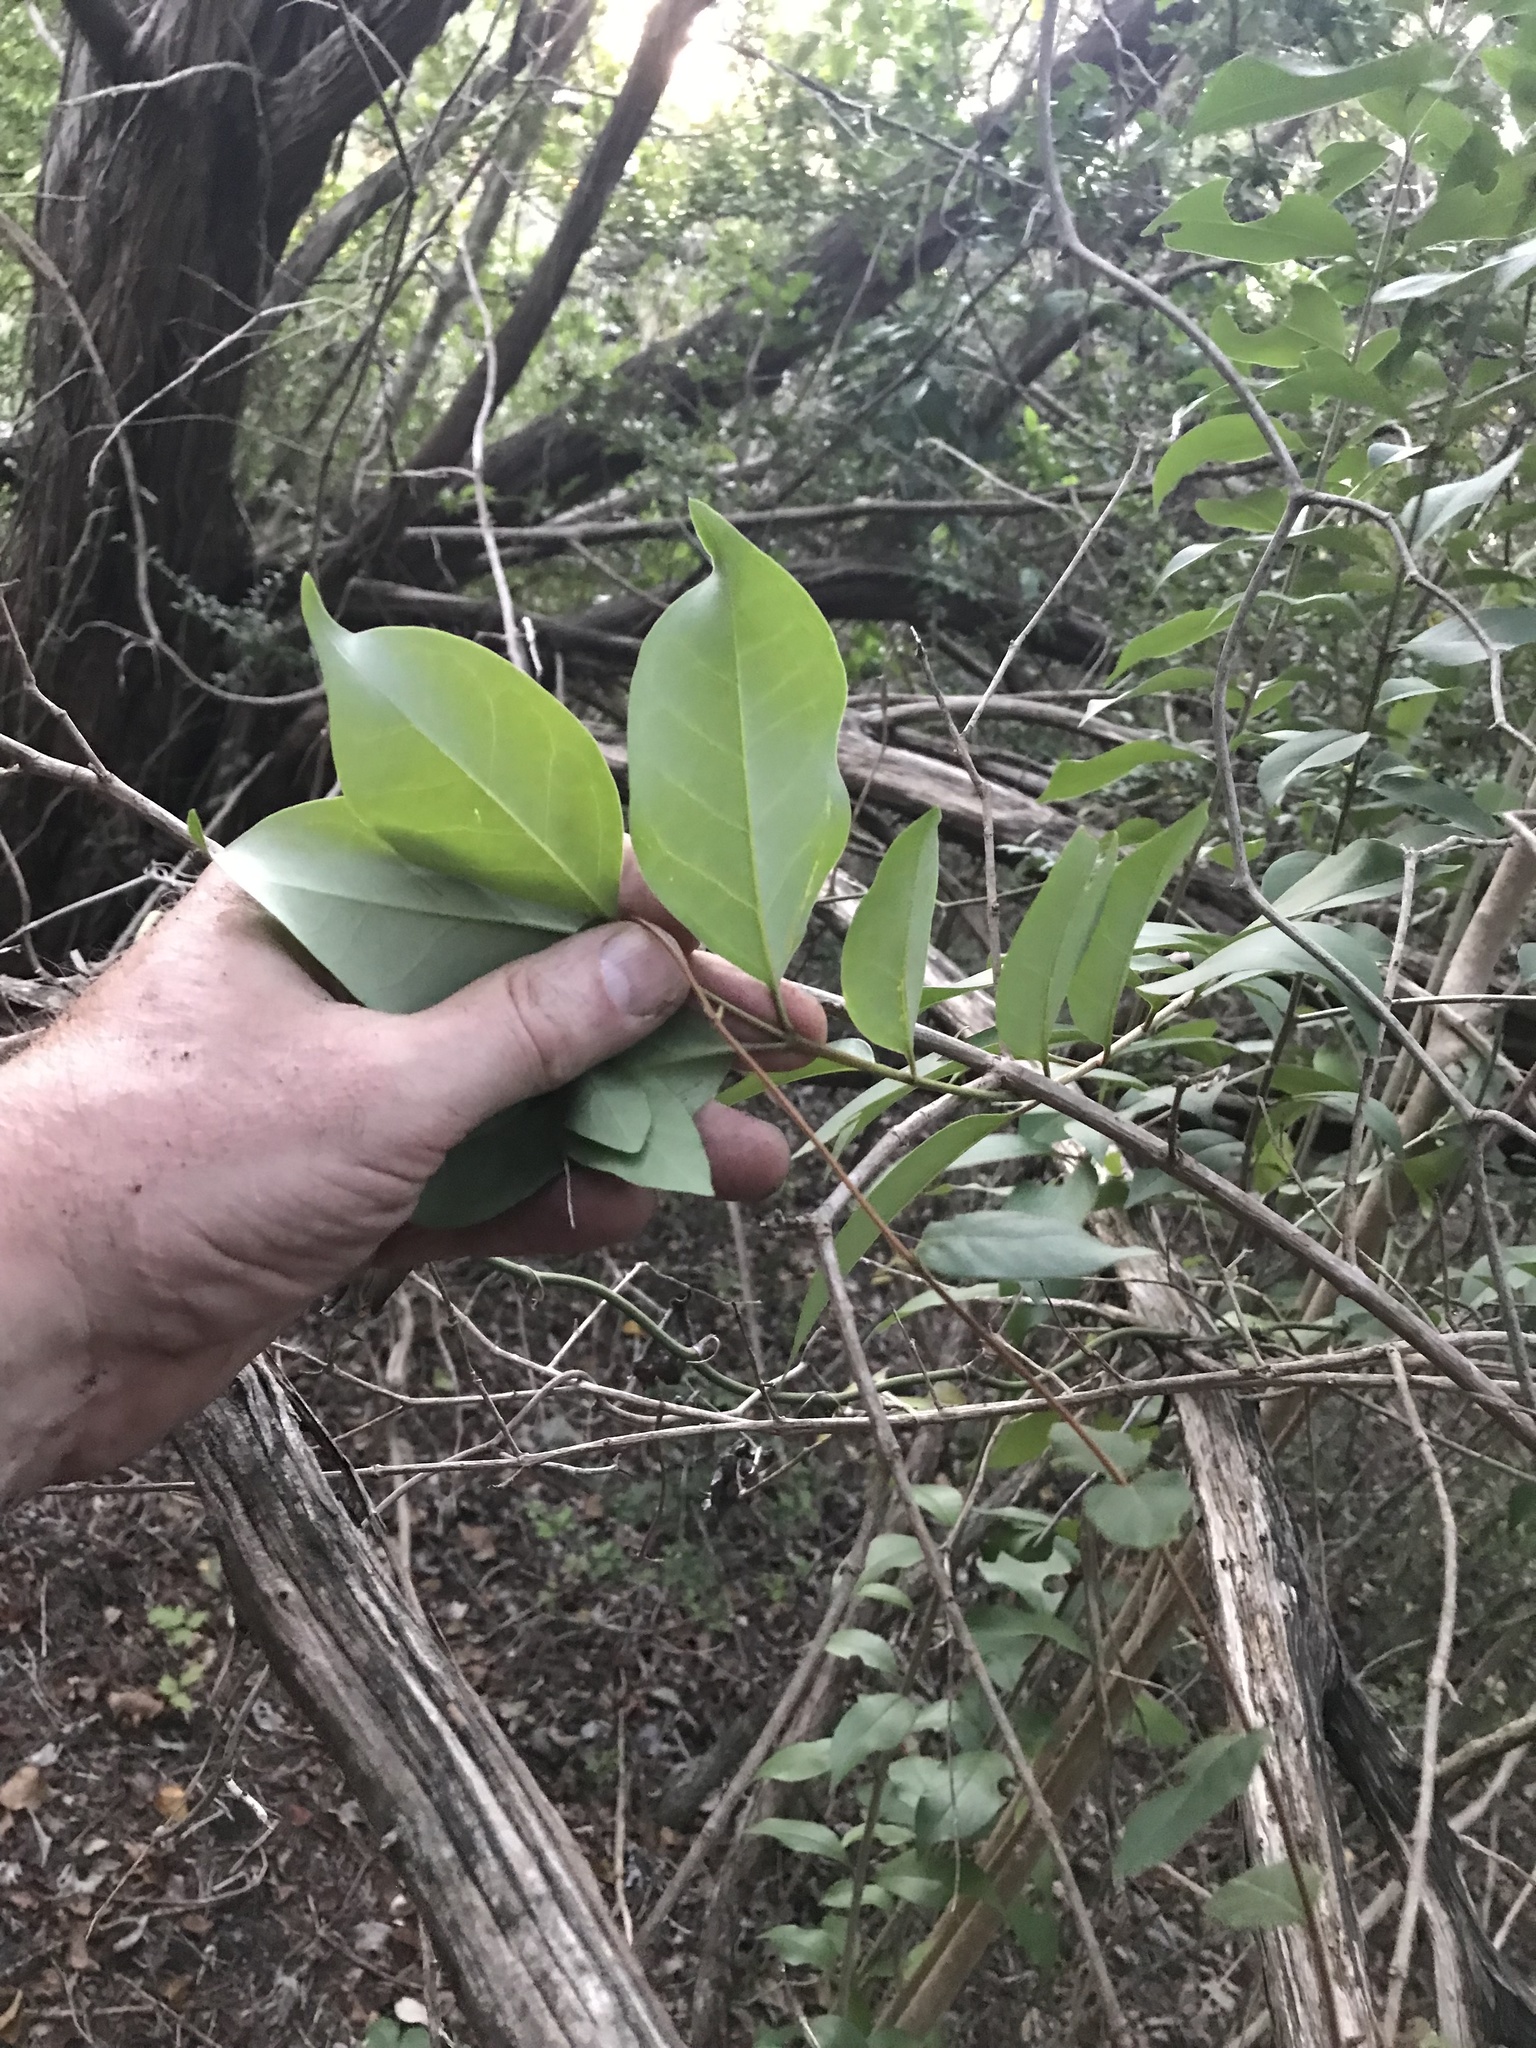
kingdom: Plantae
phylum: Tracheophyta
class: Magnoliopsida
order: Lamiales
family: Oleaceae
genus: Ligustrum
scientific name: Ligustrum lucidum
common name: Glossy privet
